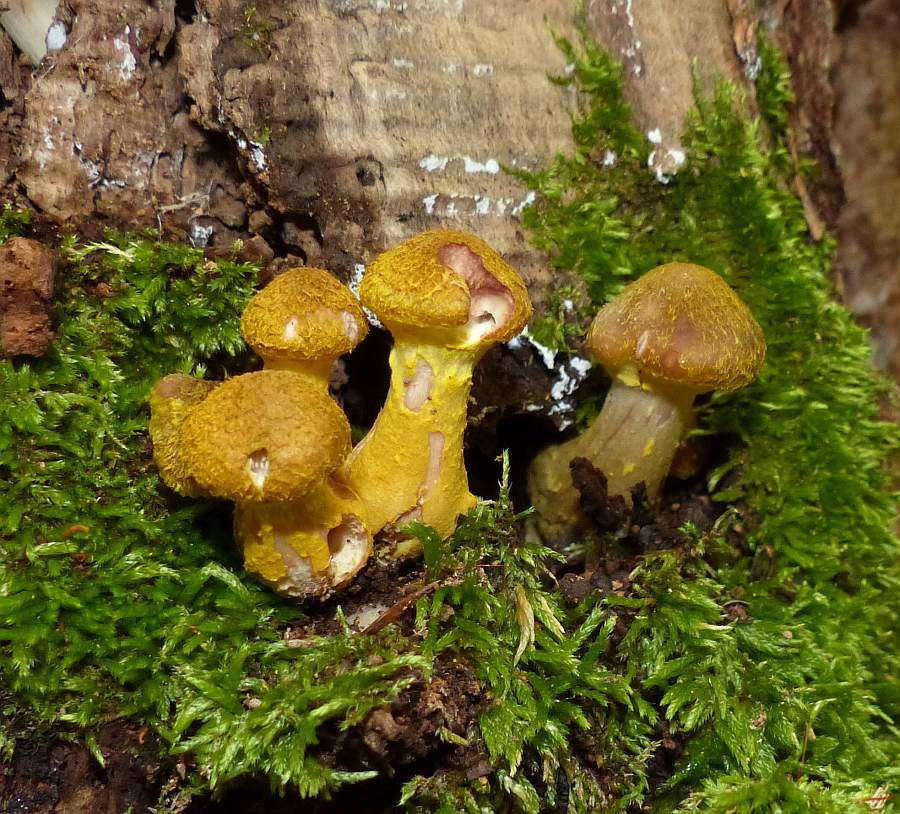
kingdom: Fungi
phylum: Basidiomycota
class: Agaricomycetes
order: Agaricales
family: Physalacriaceae
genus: Armillaria
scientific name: Armillaria mellea
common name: Honey fungus
